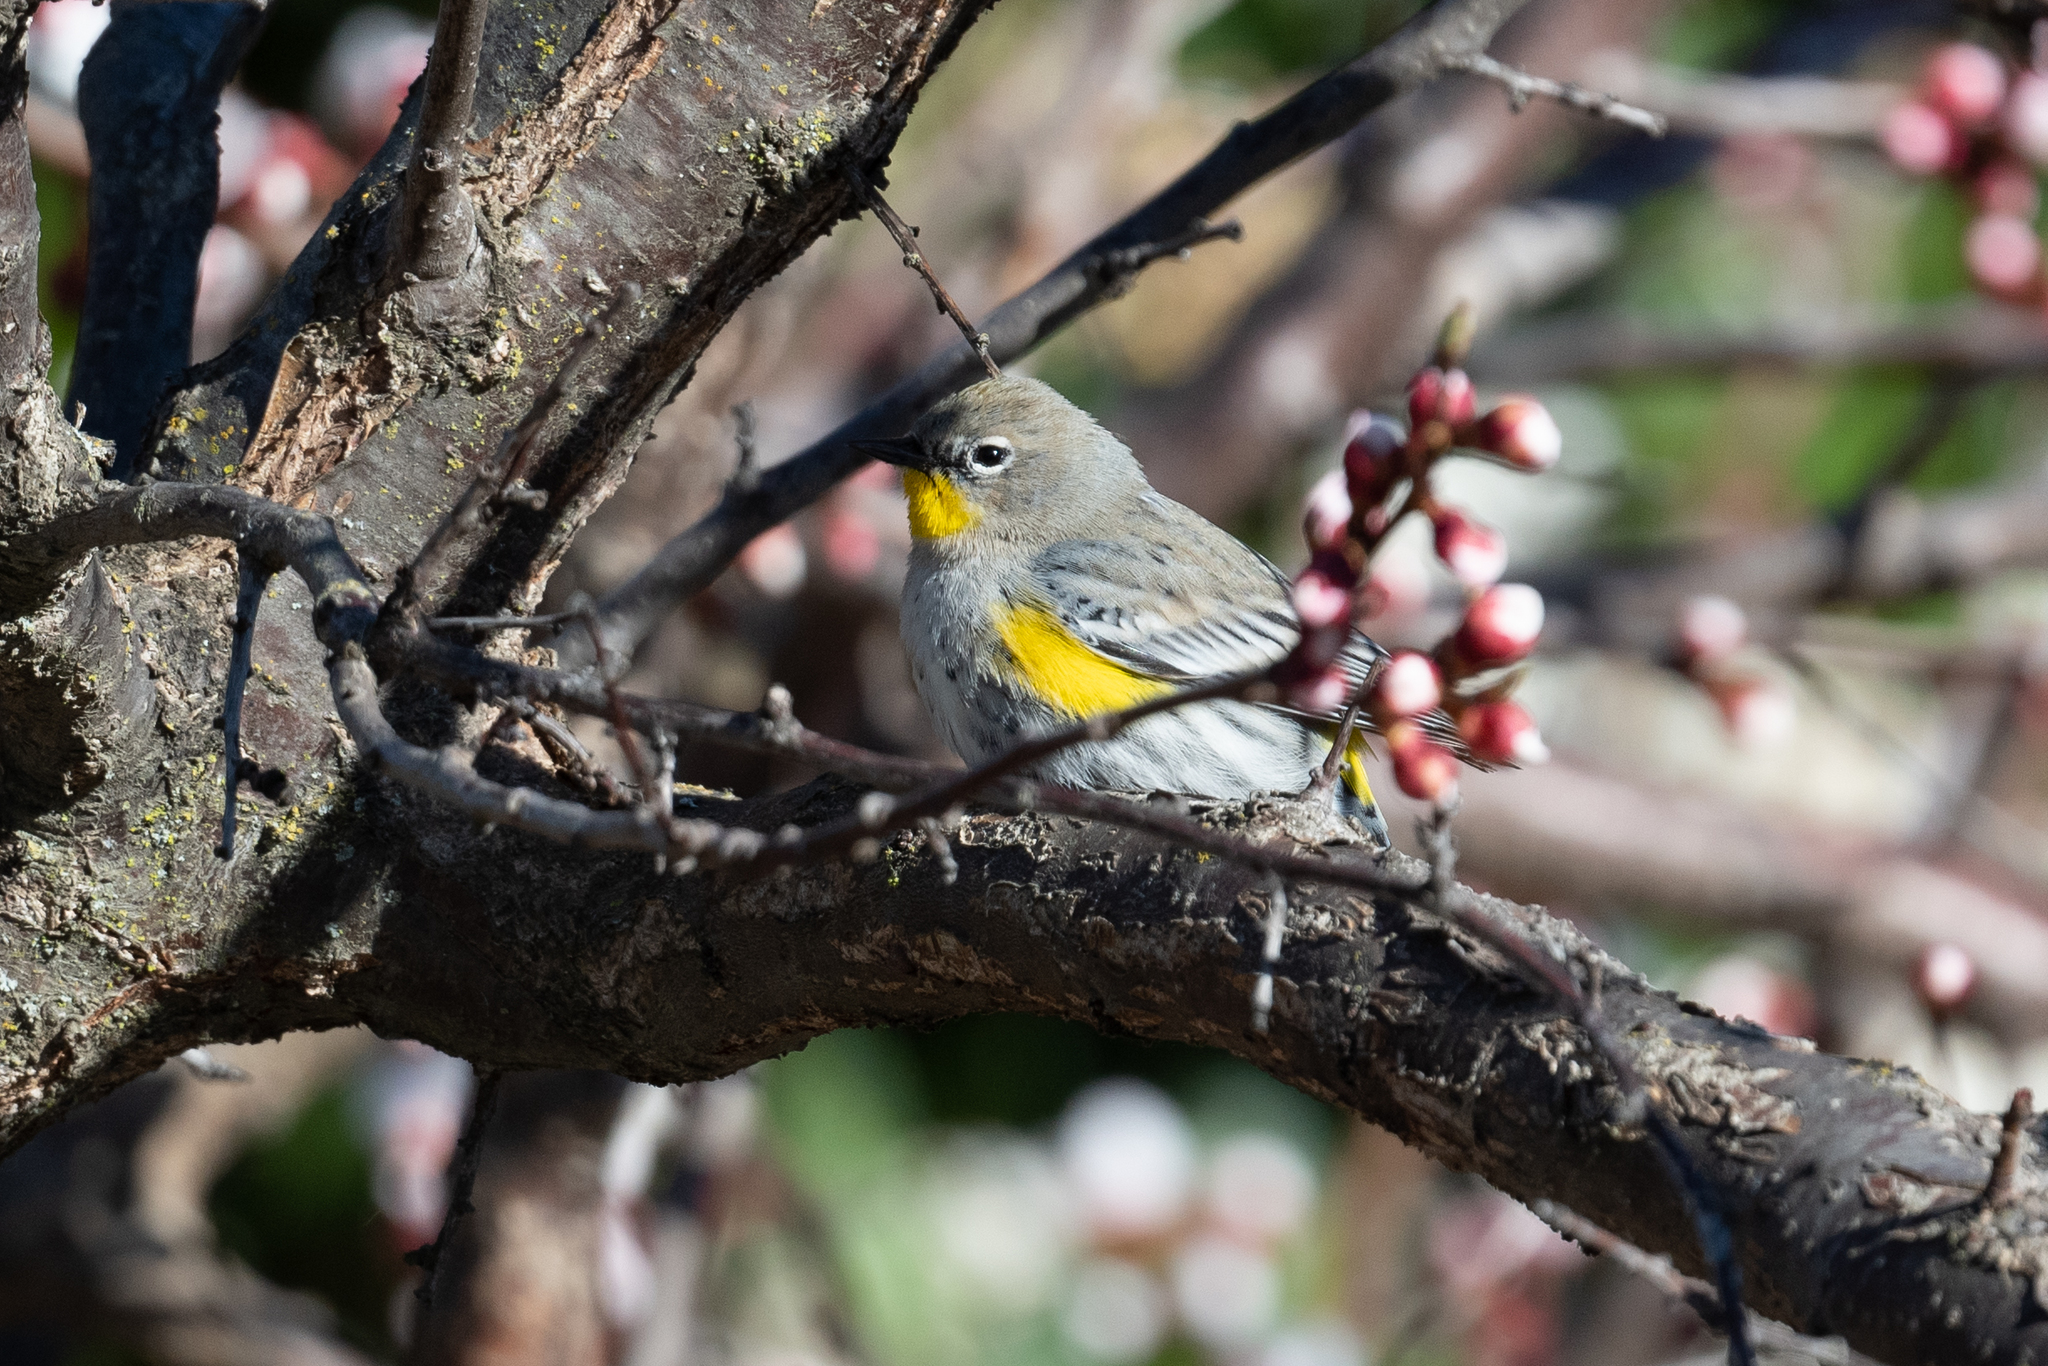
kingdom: Animalia
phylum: Chordata
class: Aves
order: Passeriformes
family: Parulidae
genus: Setophaga
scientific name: Setophaga coronata
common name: Myrtle warbler
